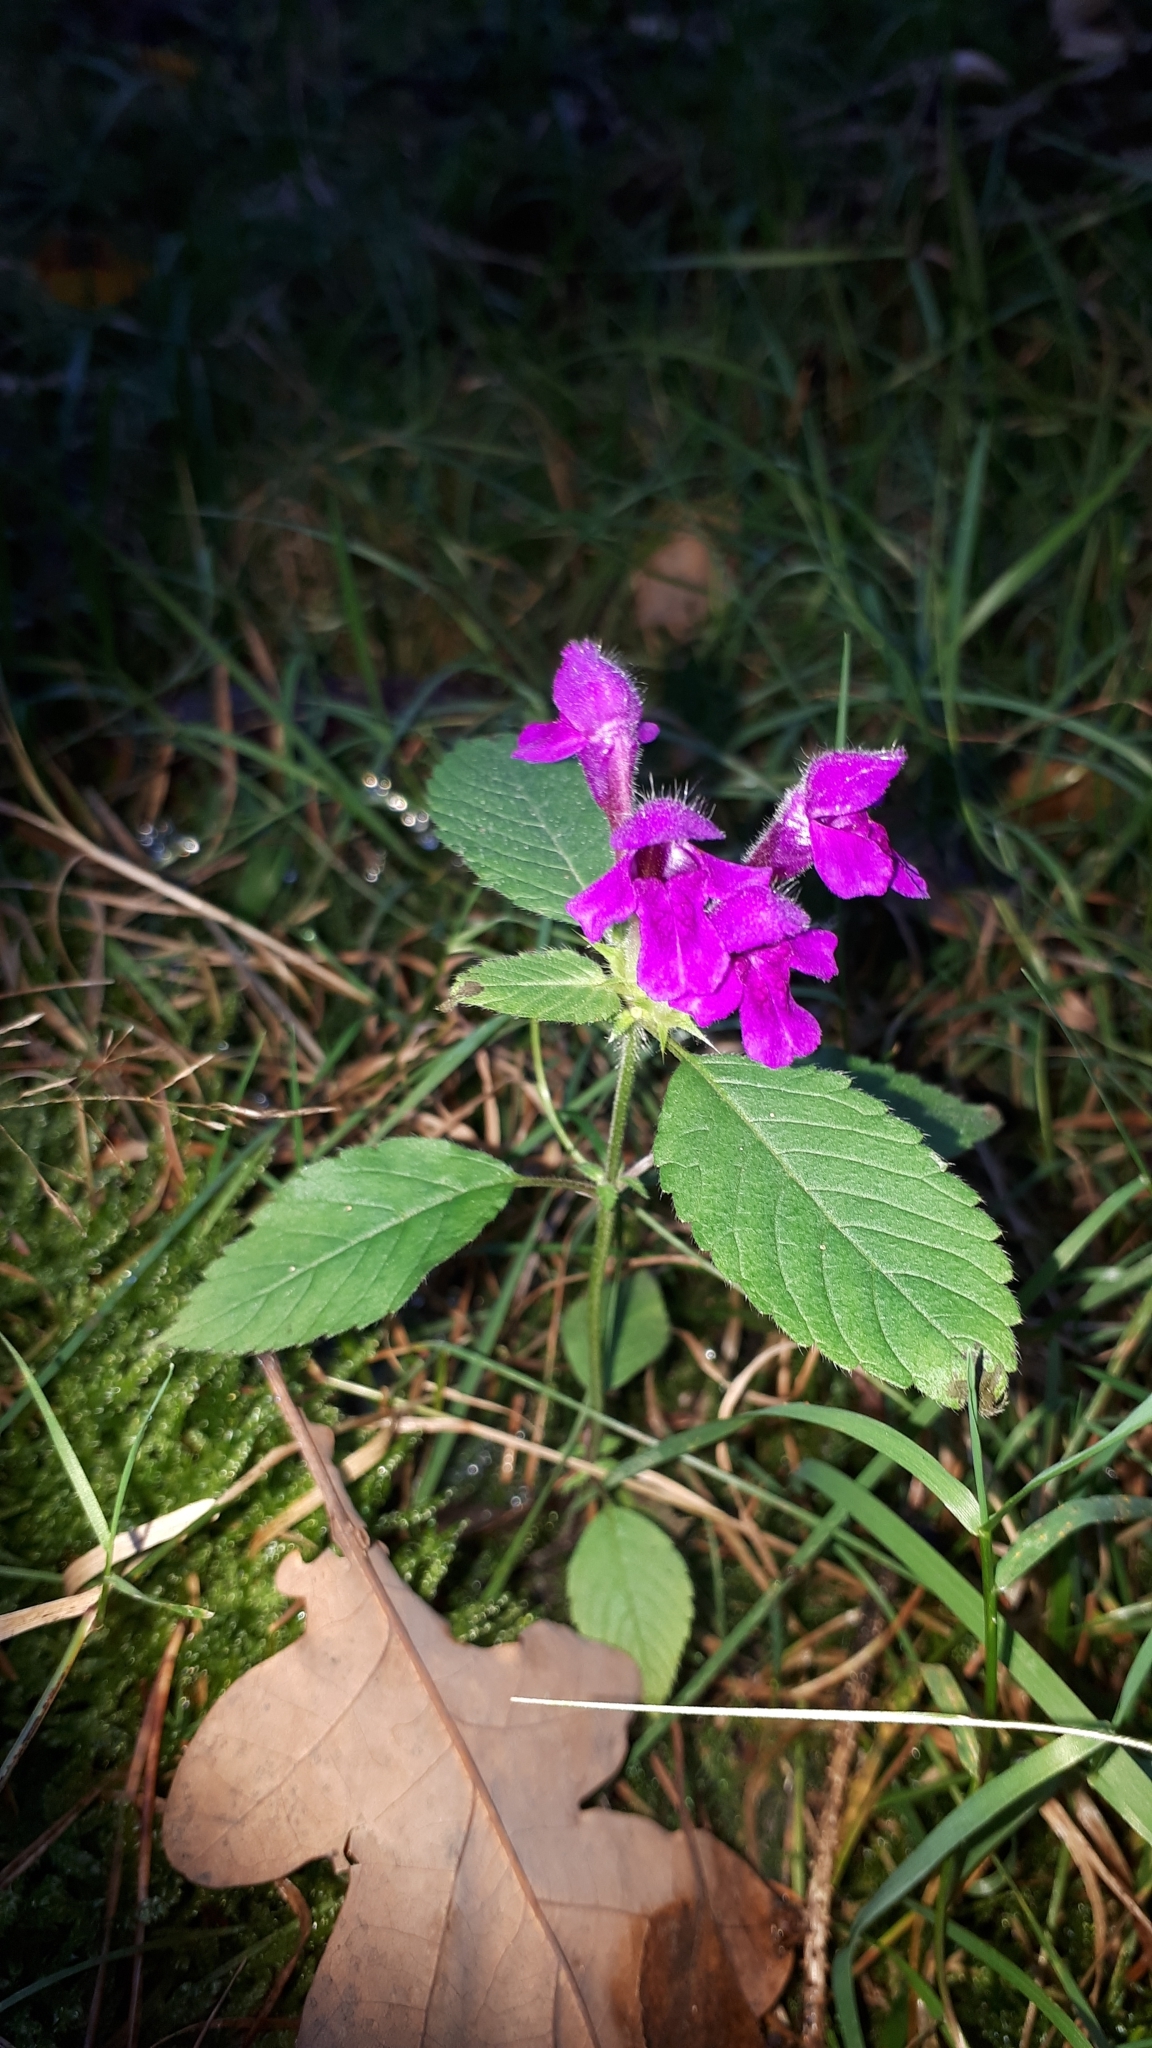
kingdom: Plantae
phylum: Tracheophyta
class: Magnoliopsida
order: Lamiales
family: Lamiaceae
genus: Galeopsis
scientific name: Galeopsis pubescens
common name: Downy hemp-nettle
